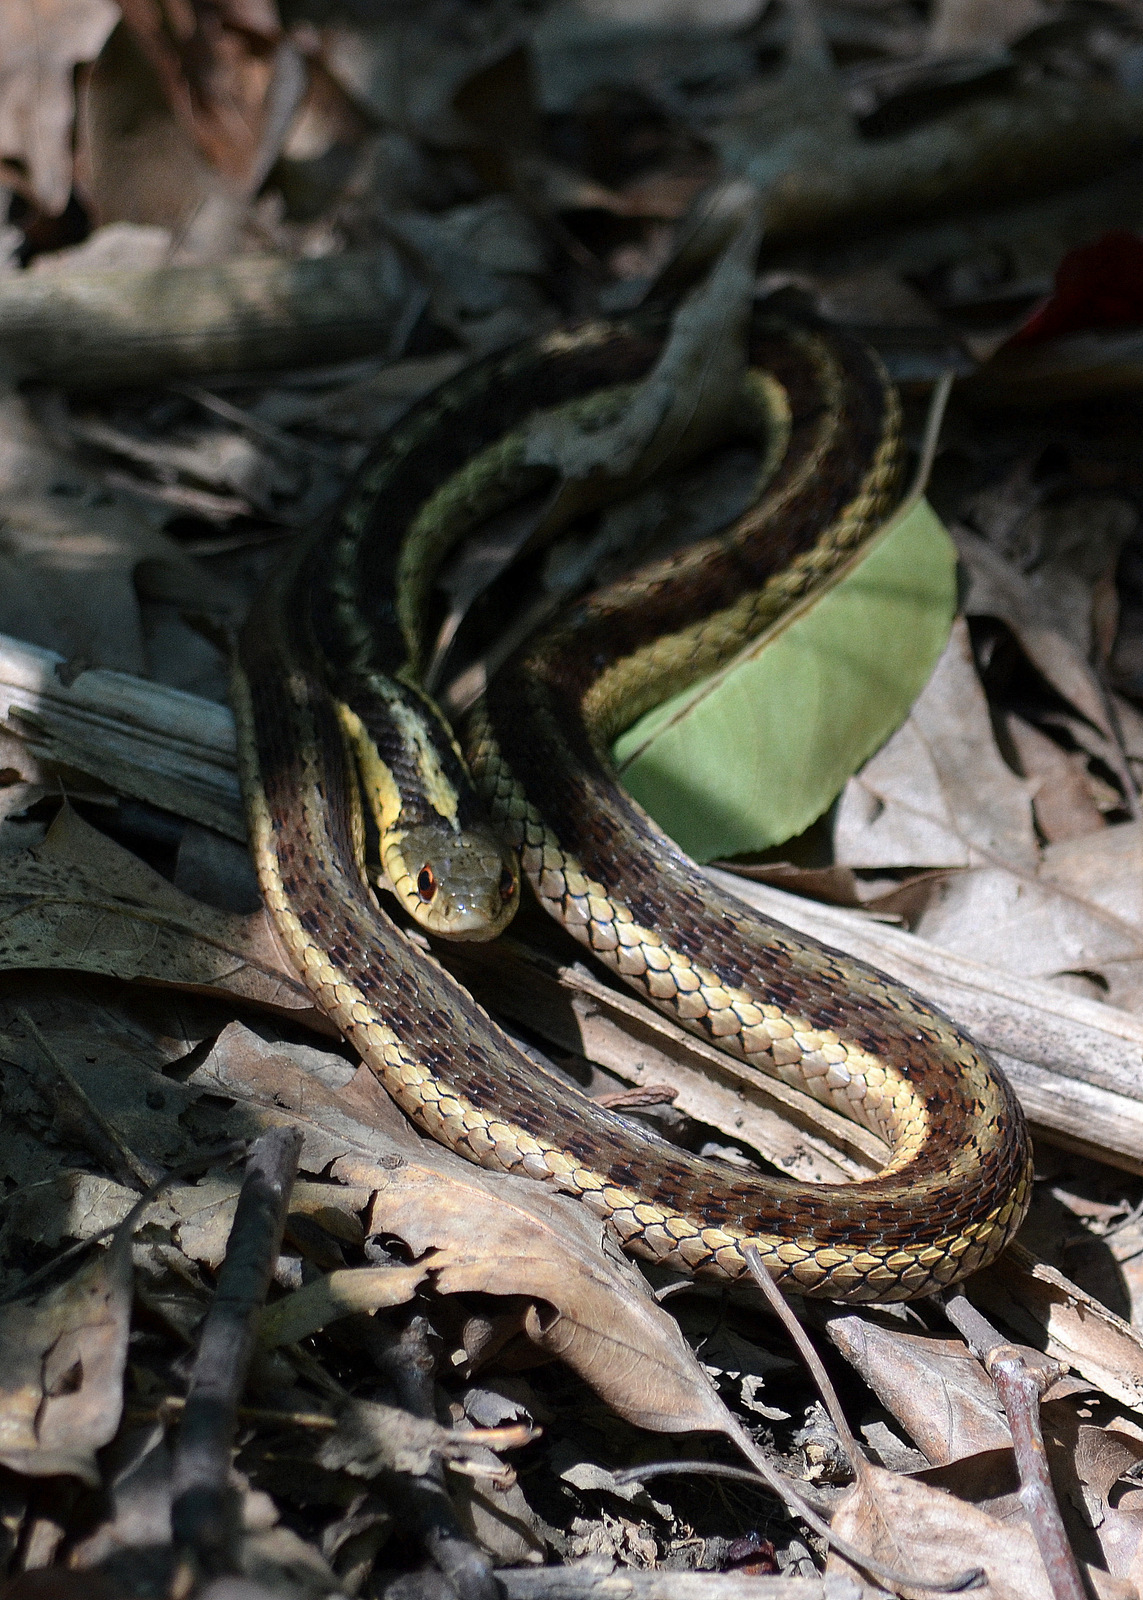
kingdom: Animalia
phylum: Chordata
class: Squamata
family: Colubridae
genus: Thamnophis
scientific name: Thamnophis sirtalis
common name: Common garter snake
